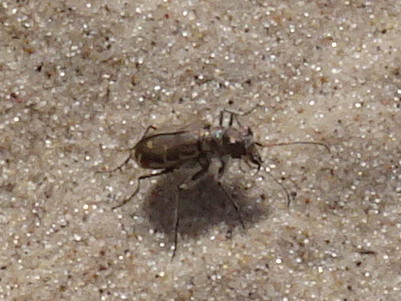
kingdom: Animalia
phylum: Arthropoda
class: Insecta
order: Coleoptera
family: Carabidae
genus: Cicindela
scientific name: Cicindela hirticollis
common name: Hairy-necked tiger beetle
